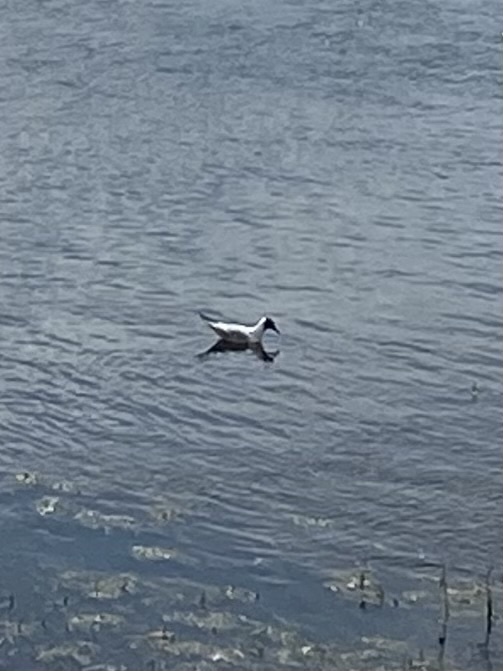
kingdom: Animalia
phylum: Chordata
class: Aves
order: Charadriiformes
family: Laridae
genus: Chroicocephalus
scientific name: Chroicocephalus ridibundus
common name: Black-headed gull
